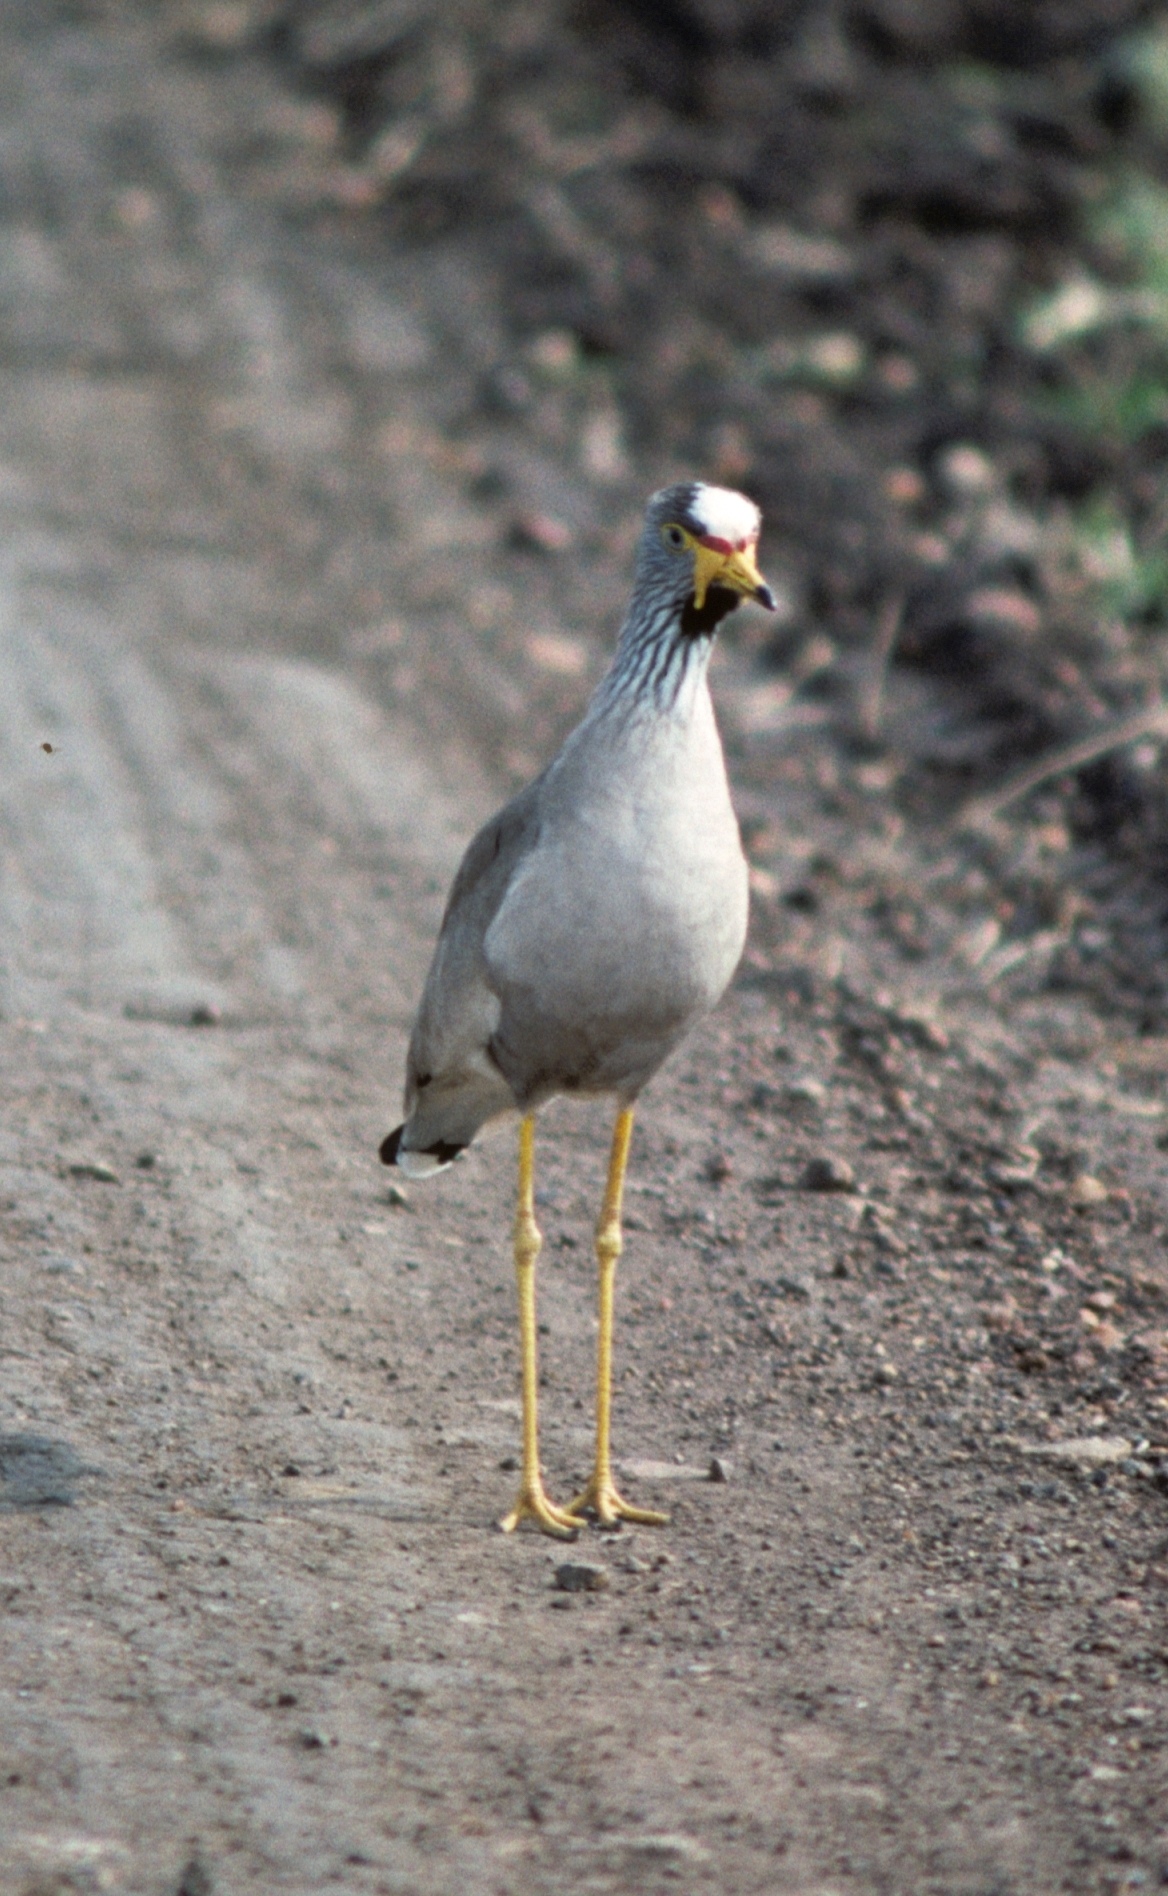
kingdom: Animalia
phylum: Chordata
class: Aves
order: Charadriiformes
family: Charadriidae
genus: Vanellus
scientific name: Vanellus senegallus
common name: African wattled lapwing
